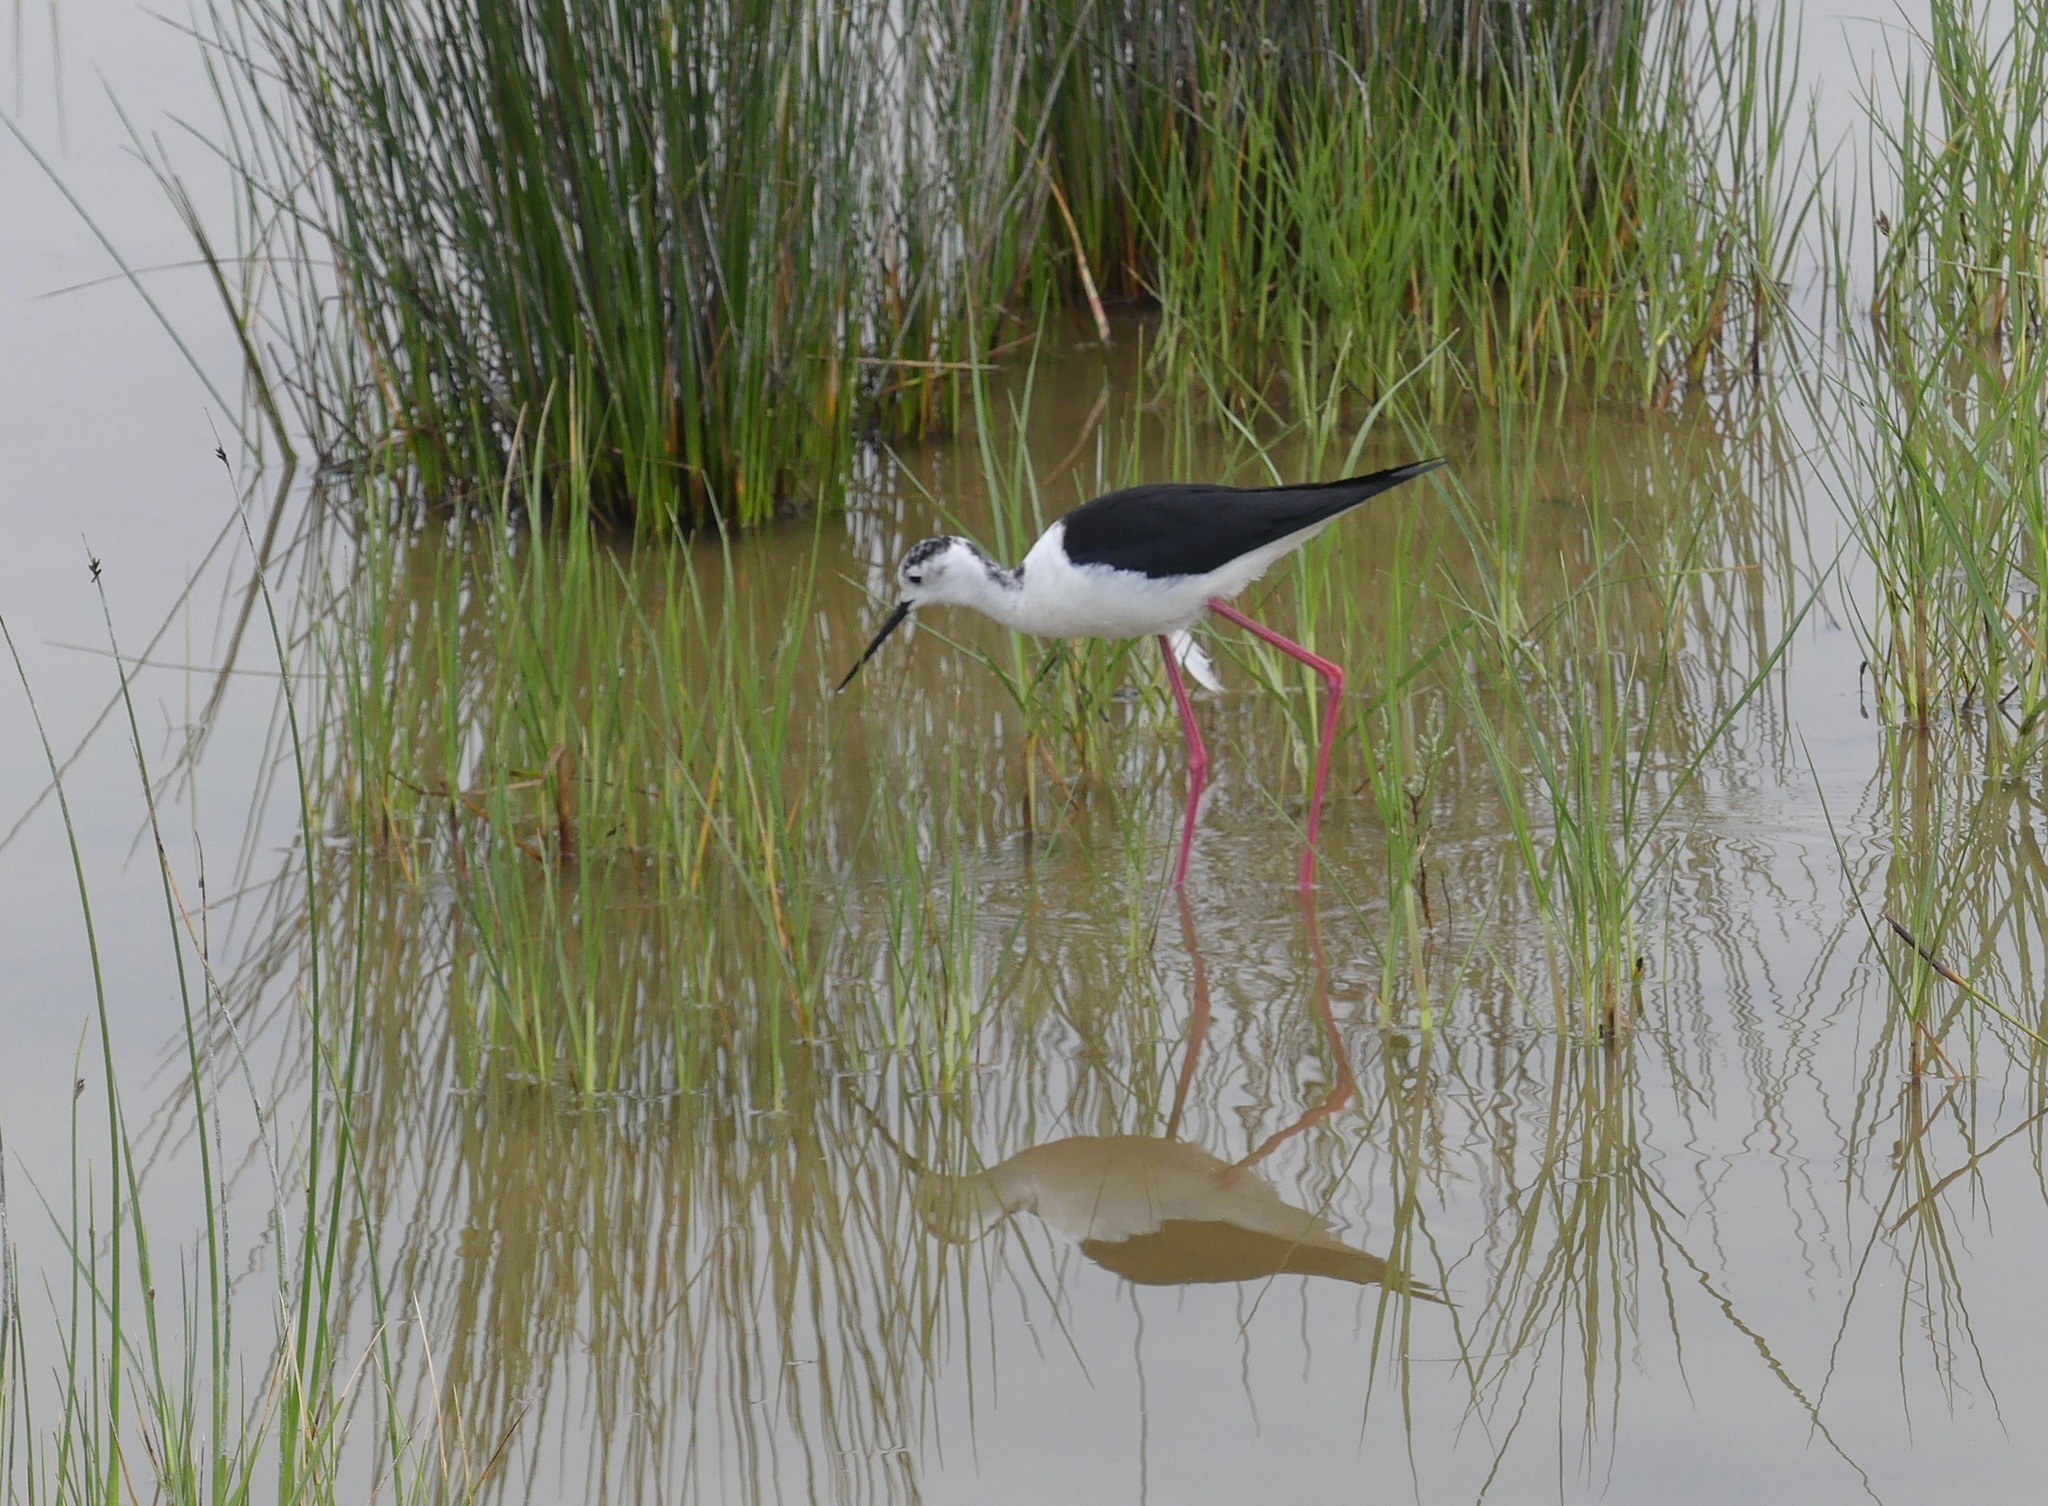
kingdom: Animalia
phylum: Chordata
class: Aves
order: Charadriiformes
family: Recurvirostridae
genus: Himantopus
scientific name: Himantopus himantopus
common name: Black-winged stilt
